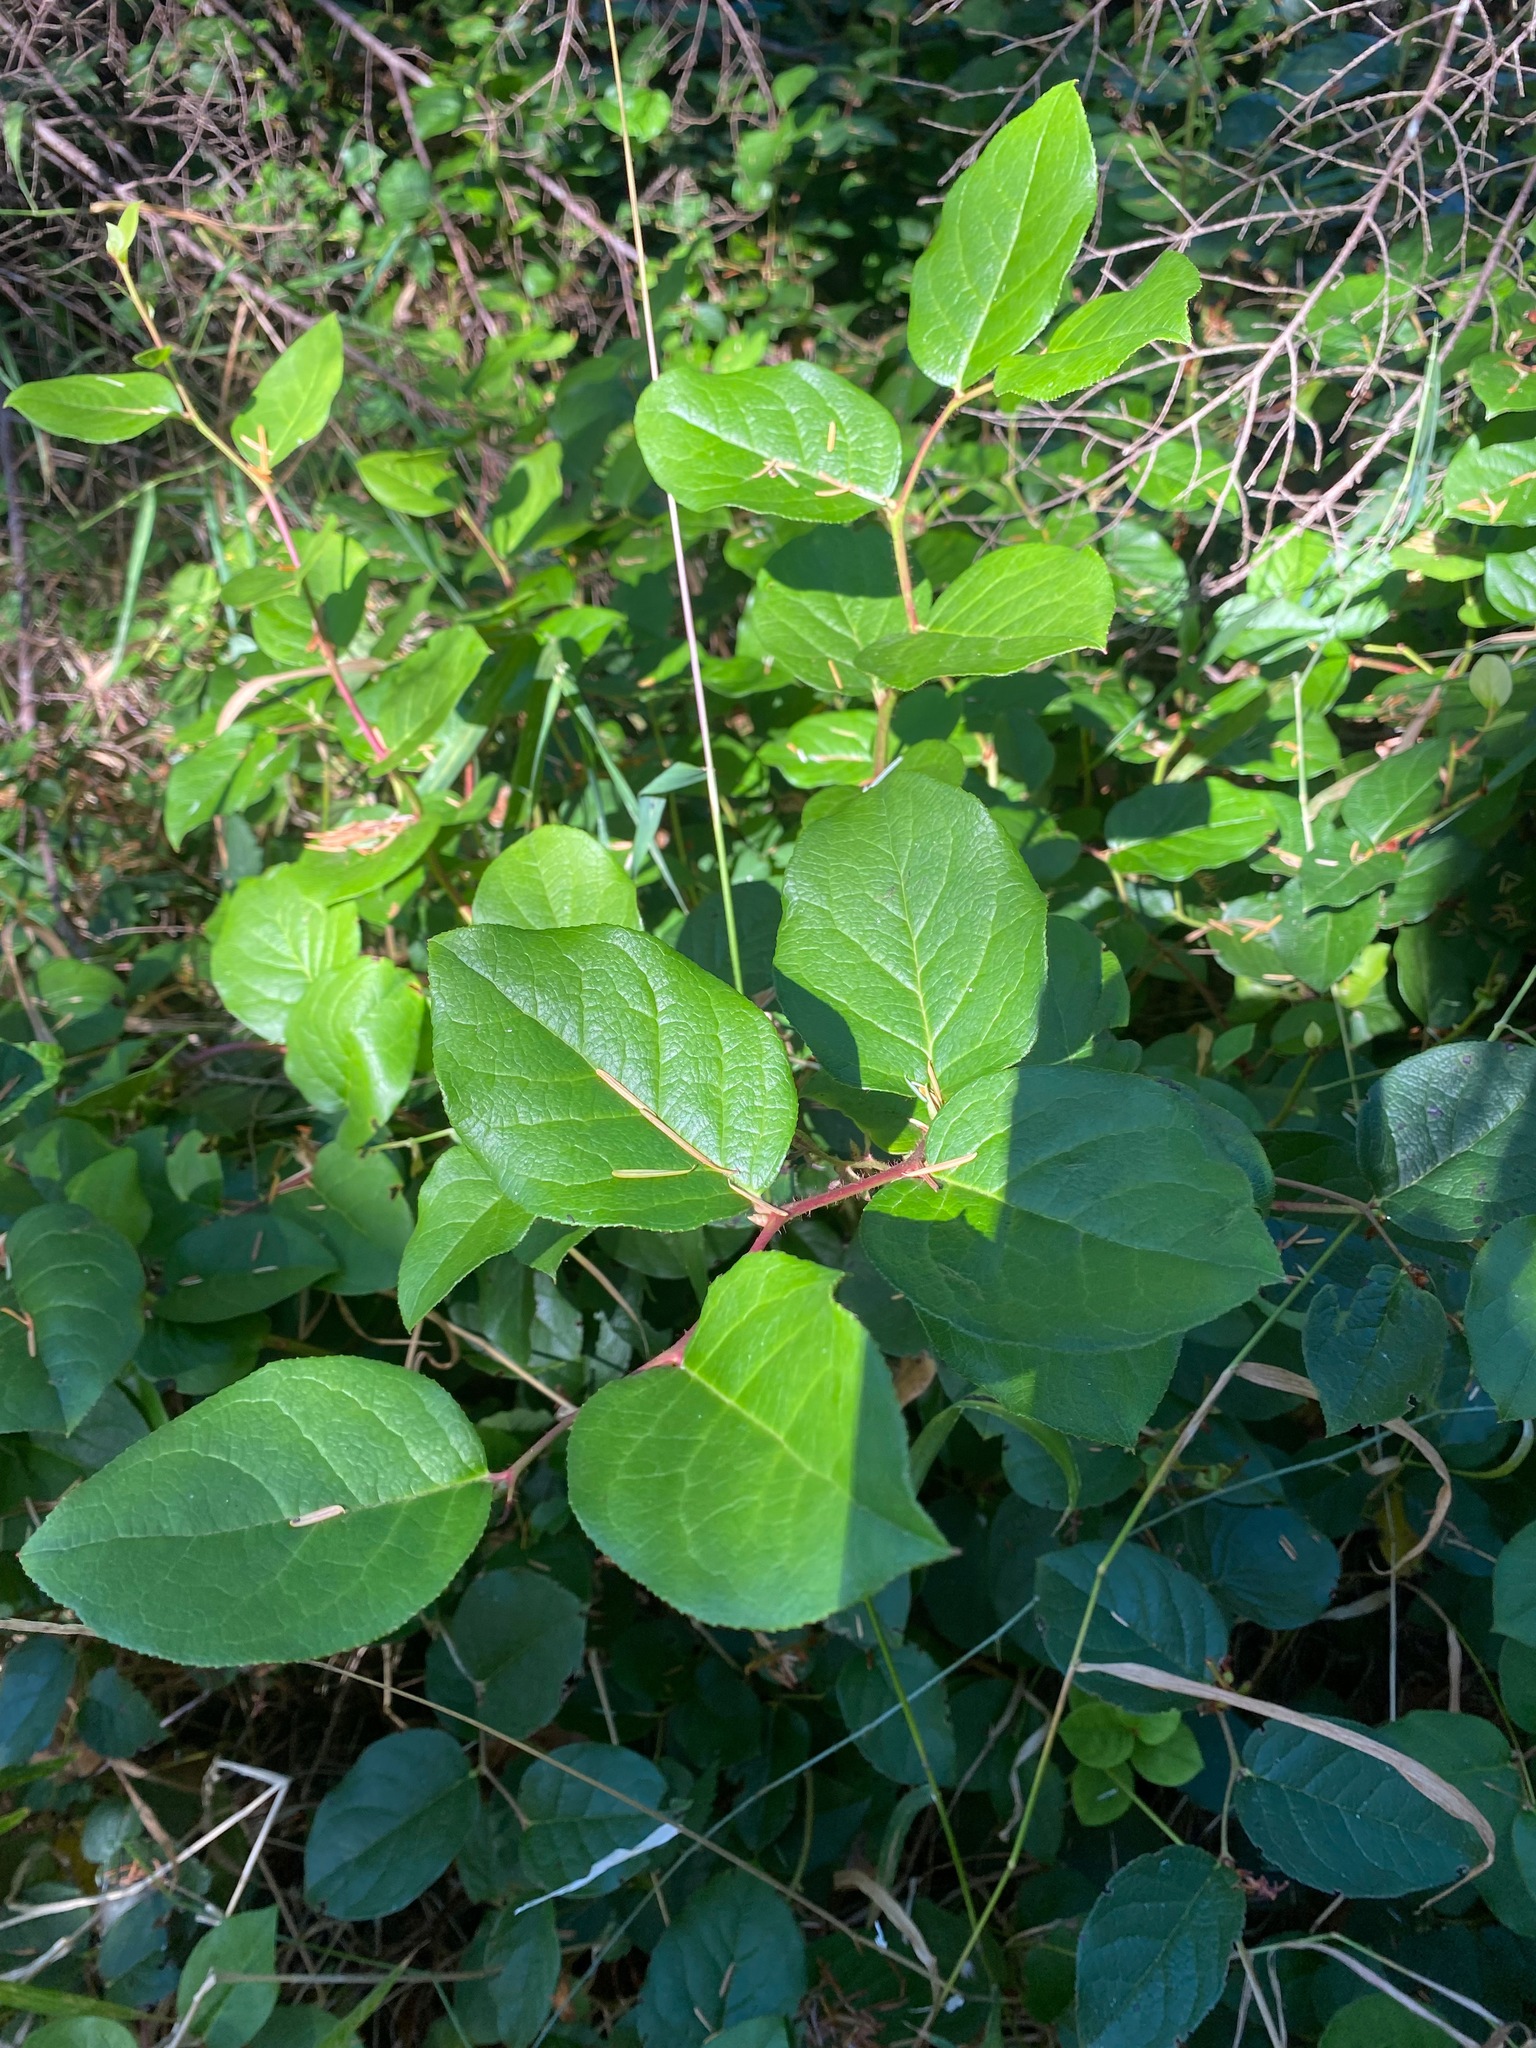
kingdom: Plantae
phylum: Tracheophyta
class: Magnoliopsida
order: Ericales
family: Ericaceae
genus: Gaultheria
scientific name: Gaultheria shallon
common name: Shallon
